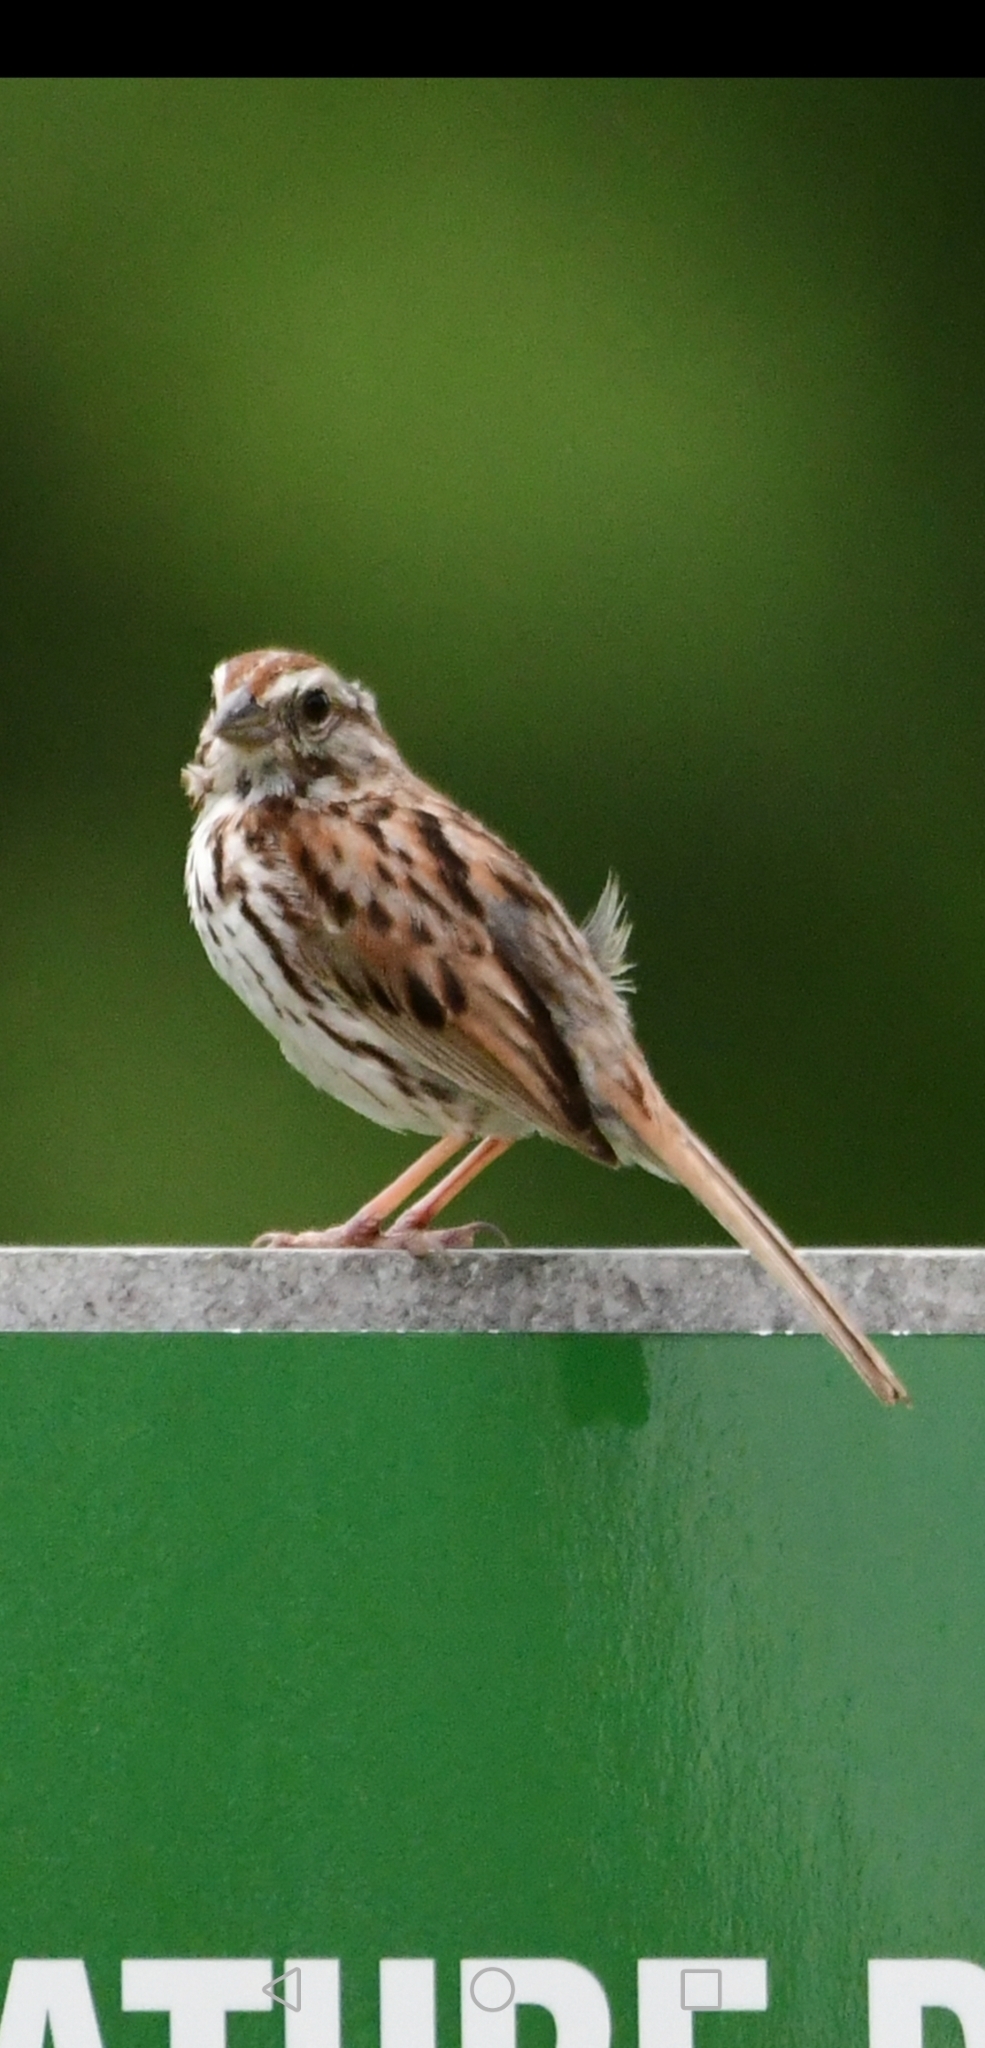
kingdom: Animalia
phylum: Chordata
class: Aves
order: Passeriformes
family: Passerellidae
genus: Melospiza
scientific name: Melospiza melodia
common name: Song sparrow
